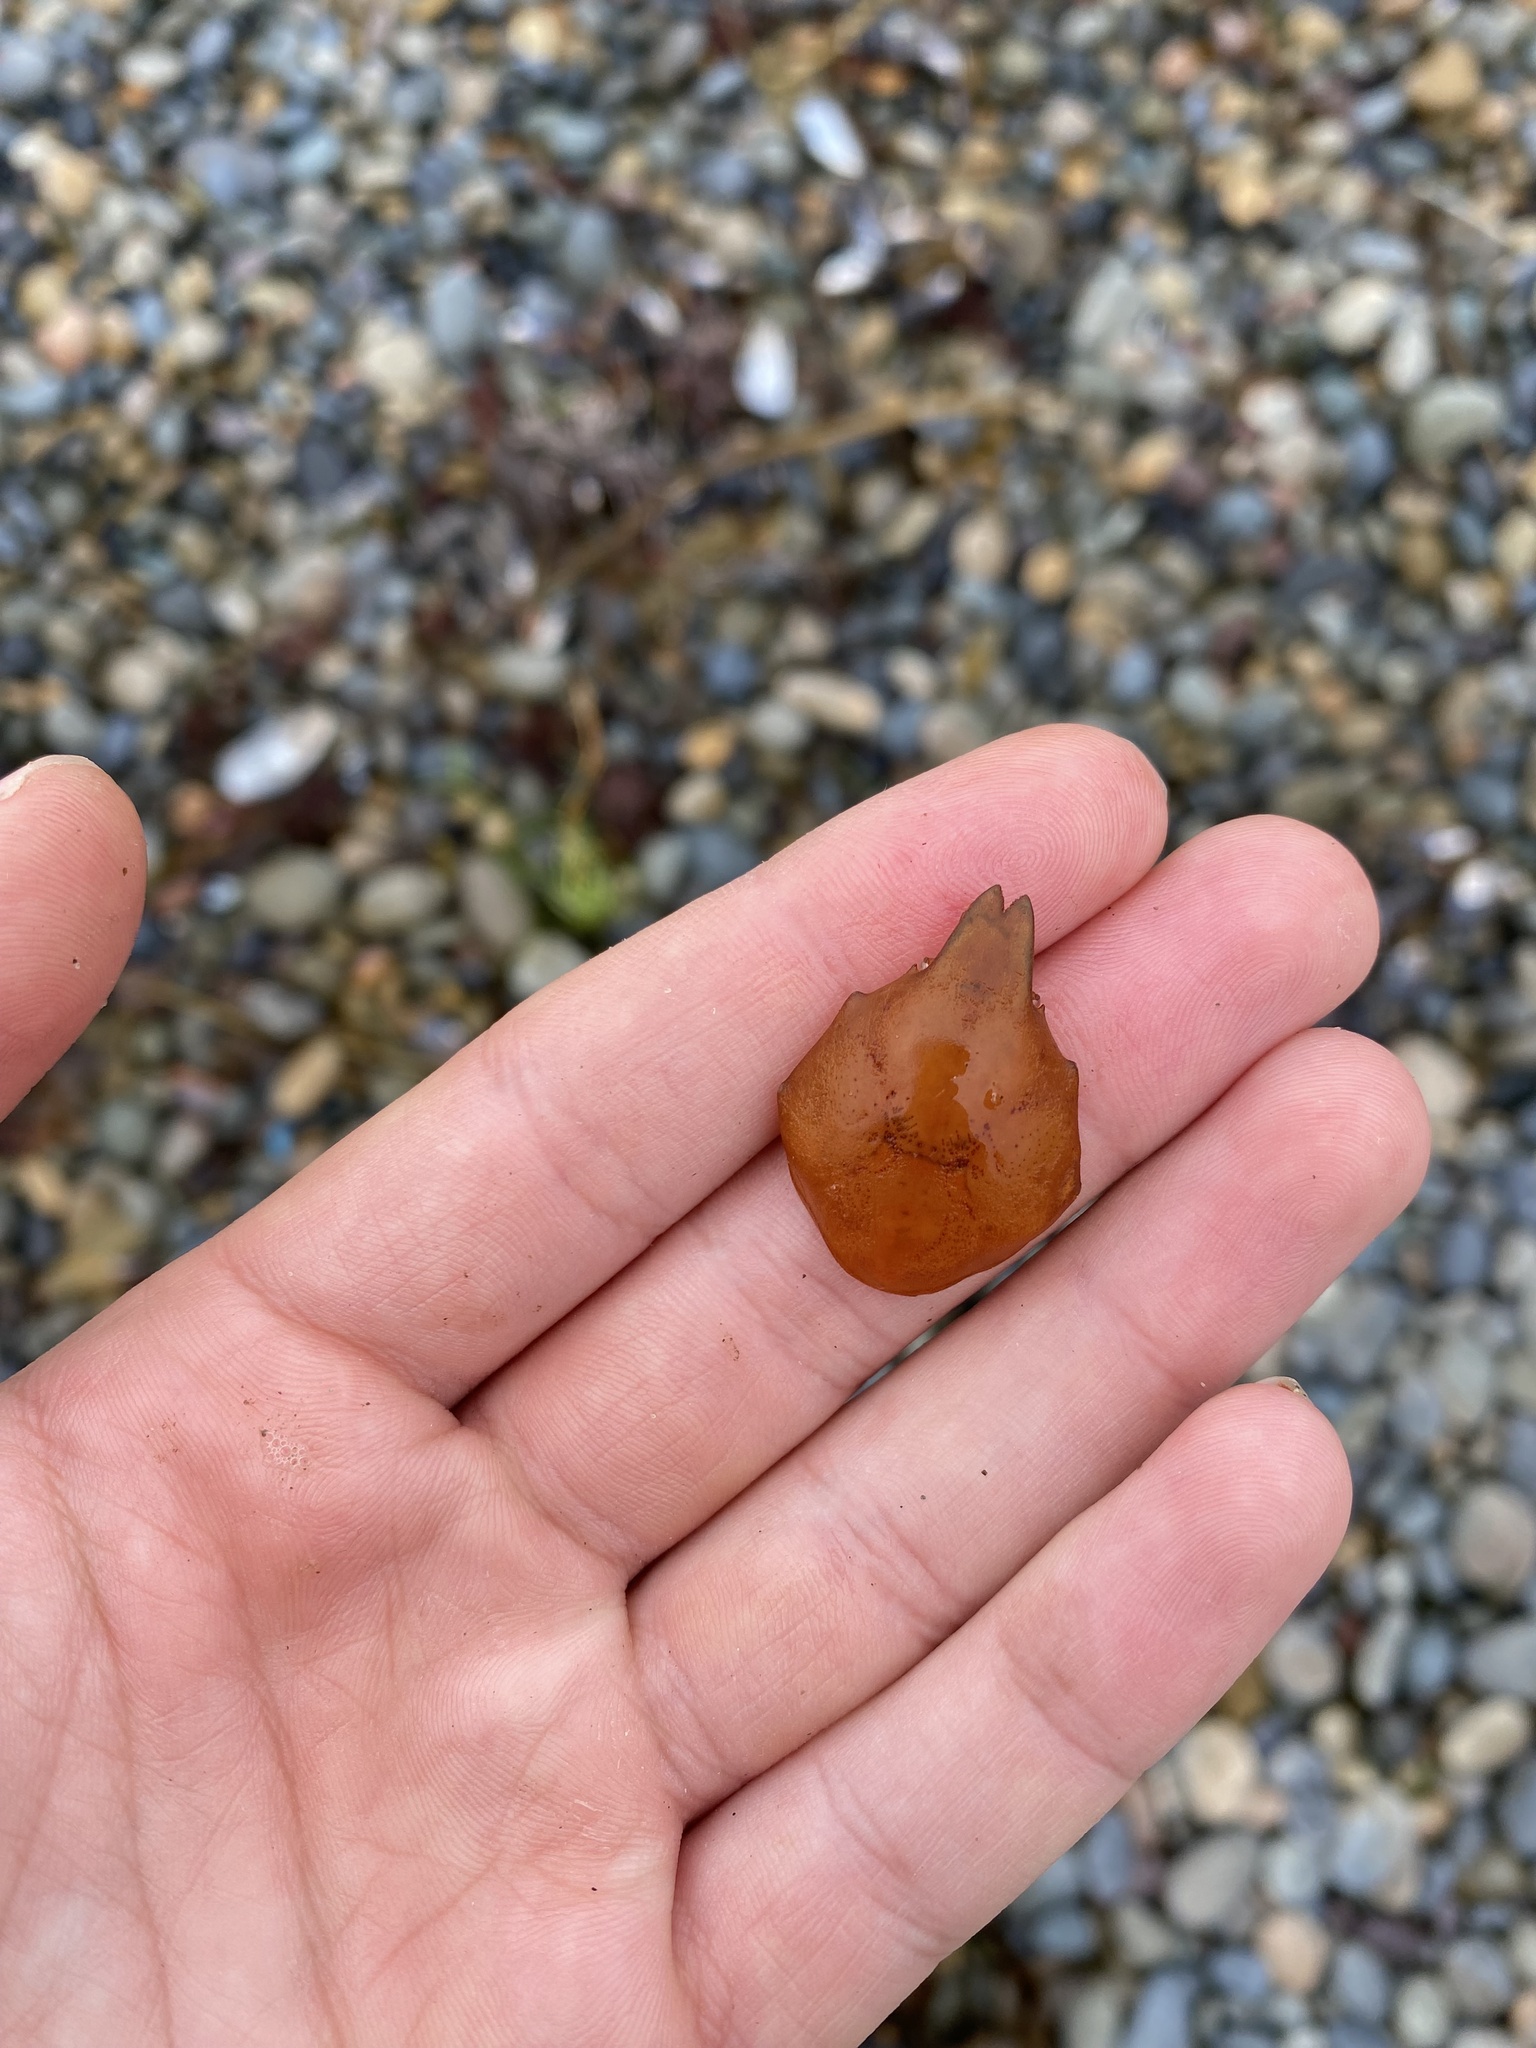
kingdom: Animalia
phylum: Arthropoda
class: Malacostraca
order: Decapoda
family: Epialtidae
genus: Taliepus
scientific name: Taliepus nuttallii
